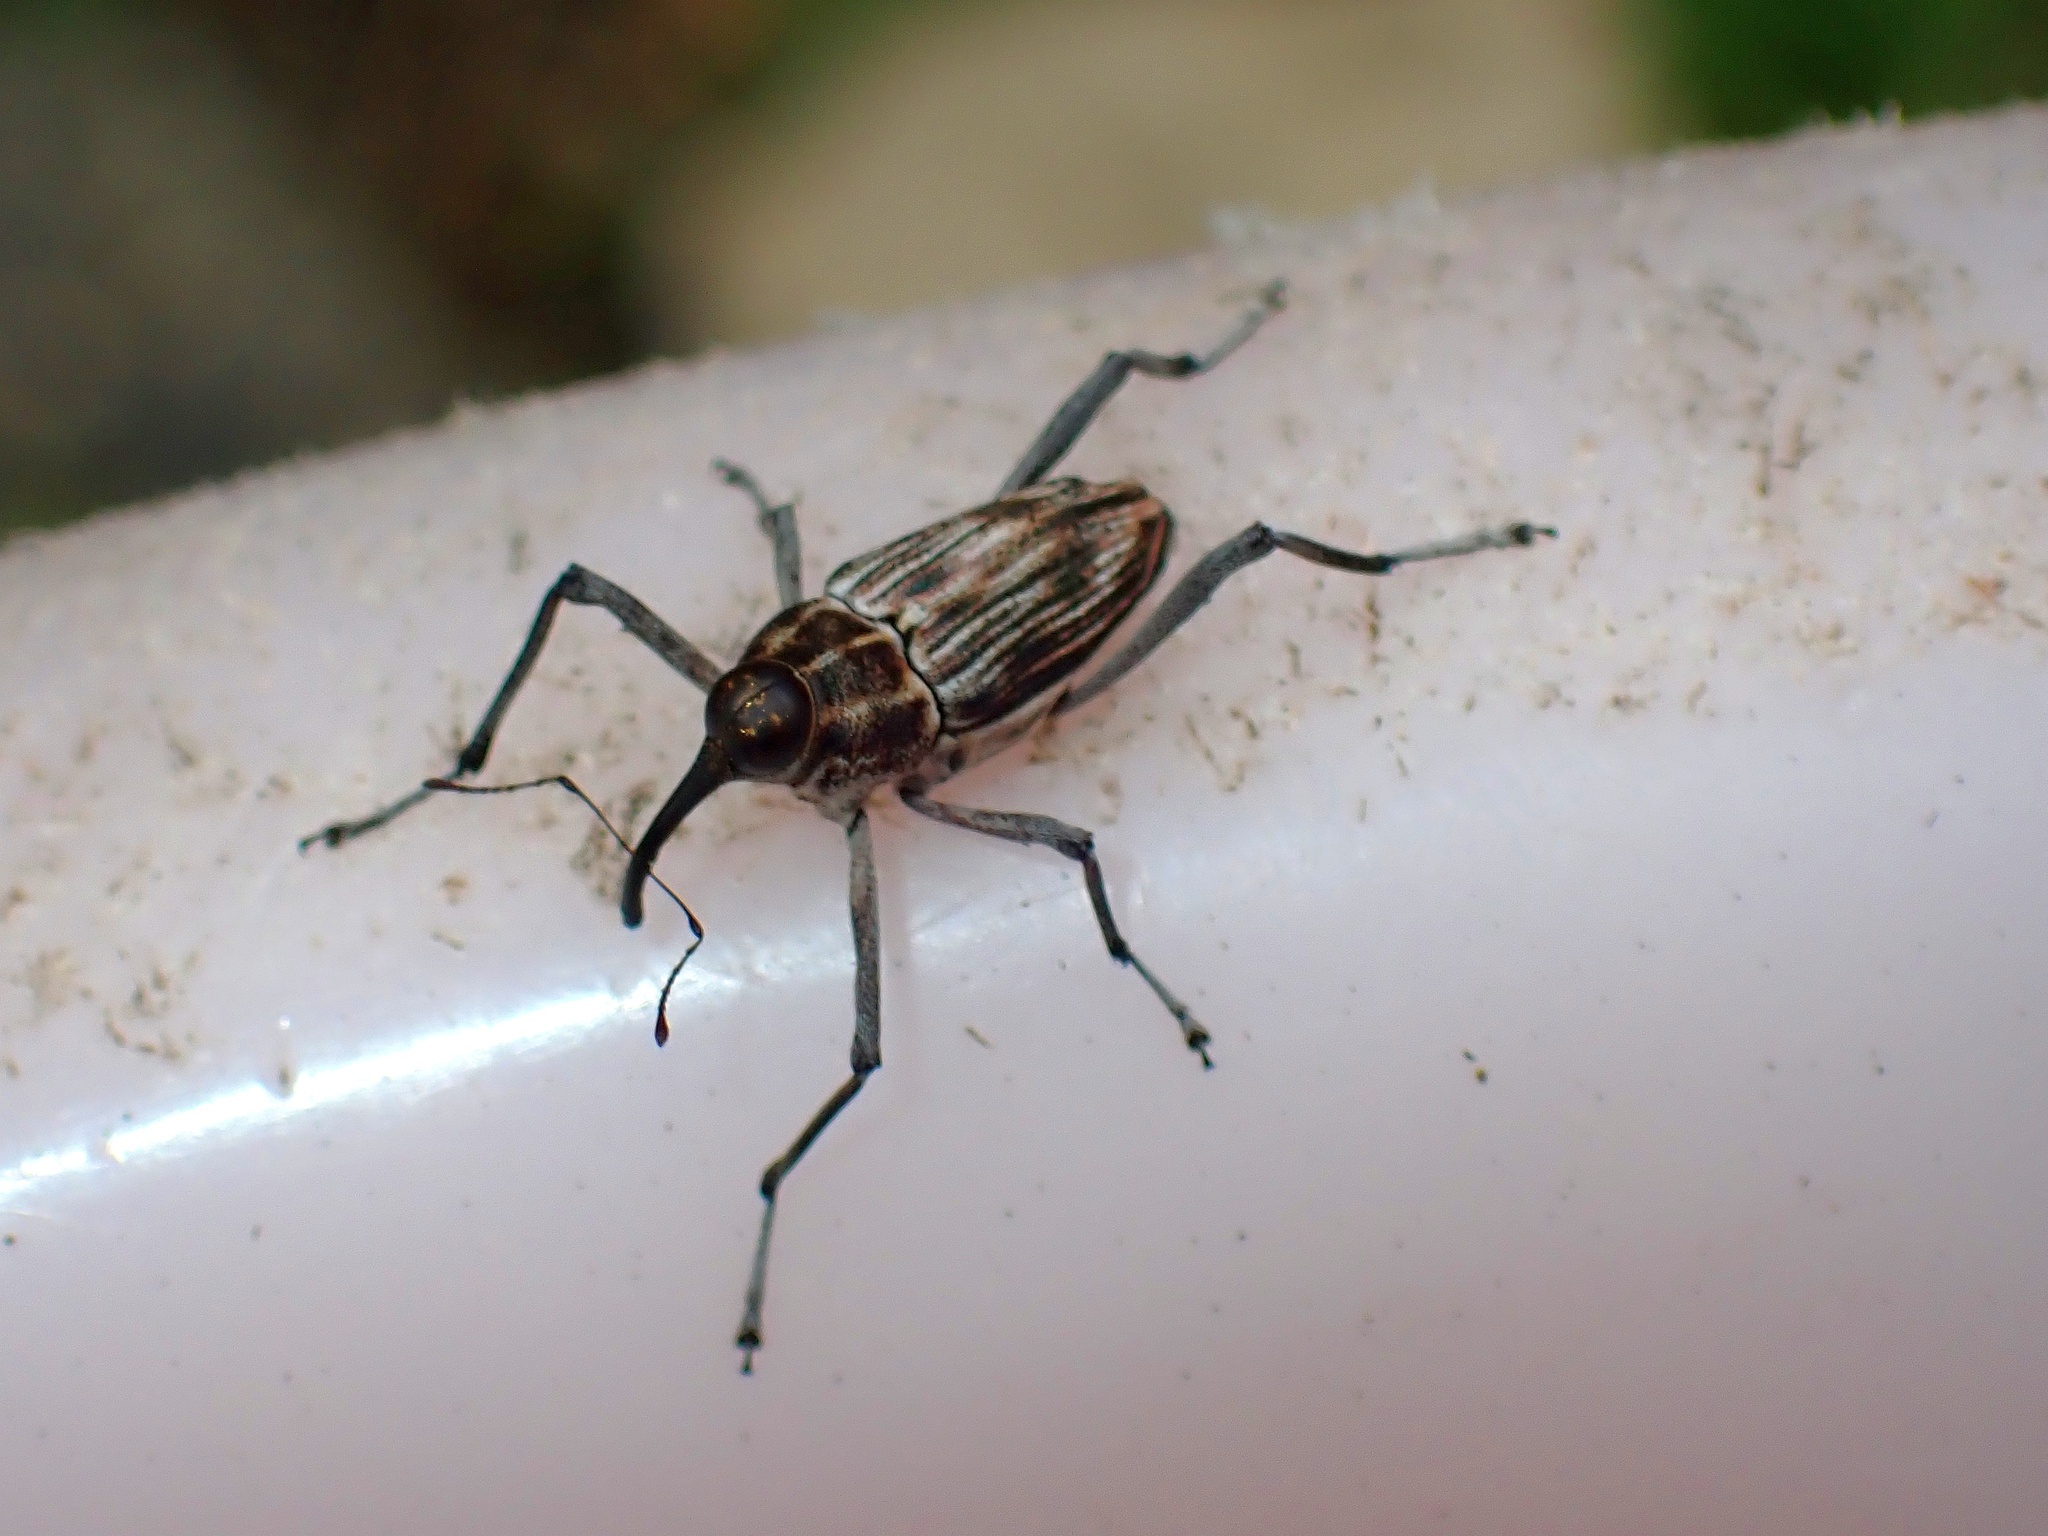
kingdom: Animalia
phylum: Arthropoda
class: Insecta
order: Coleoptera
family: Curculionidae
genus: Mecopus
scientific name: Mecopus trilineatus
